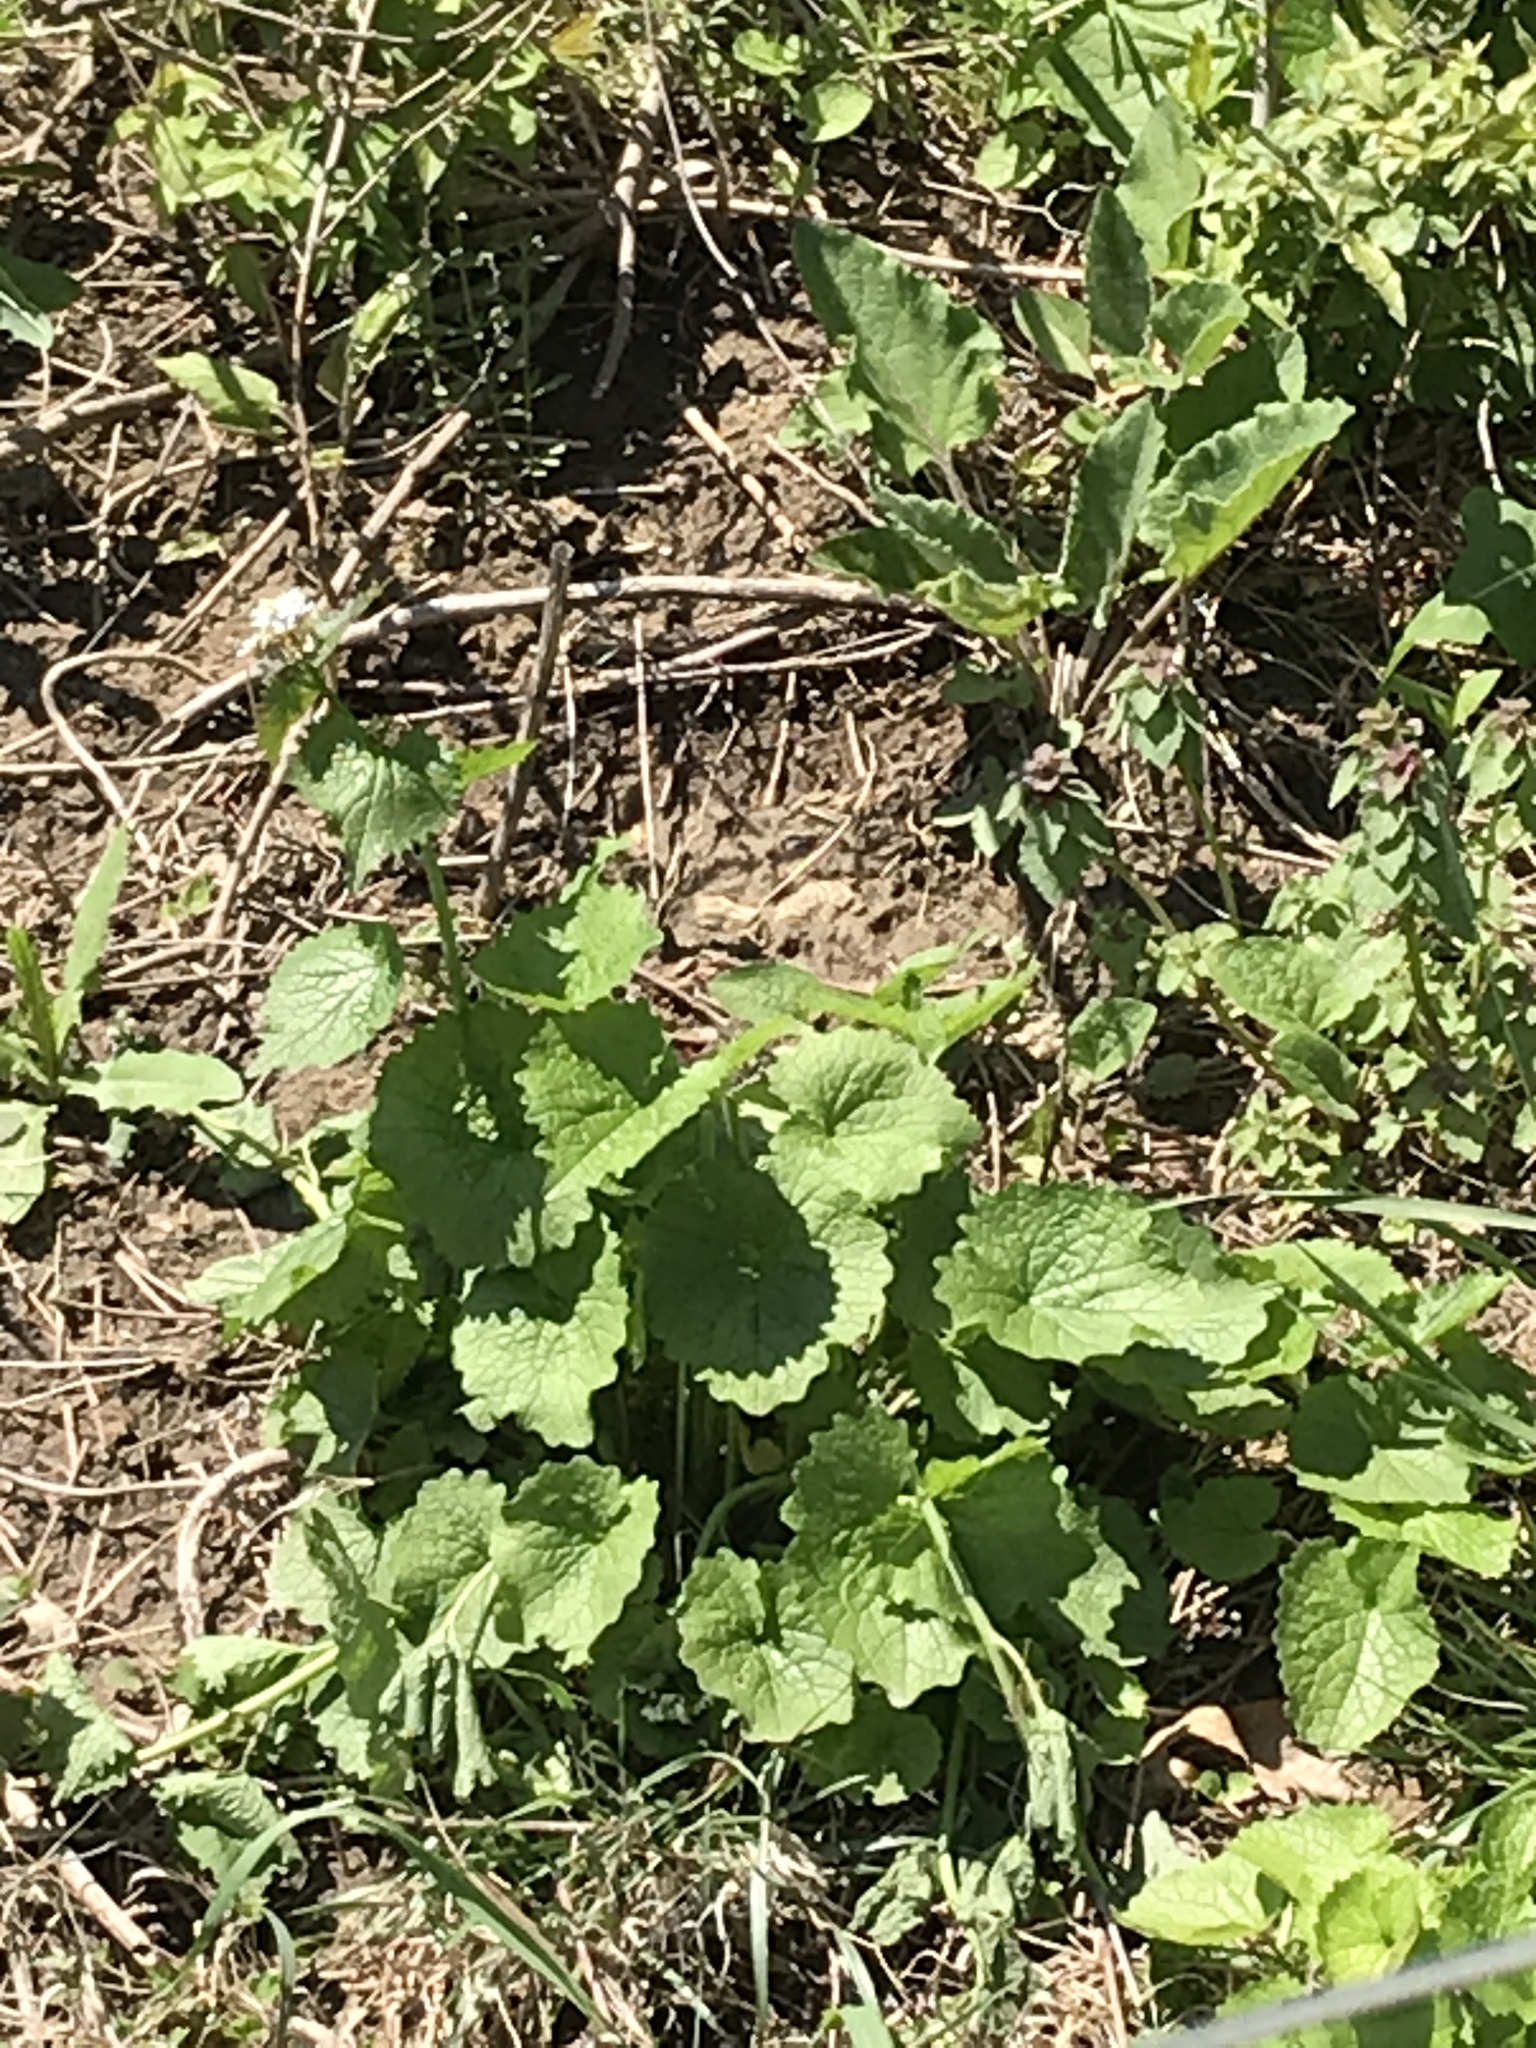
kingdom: Plantae
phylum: Tracheophyta
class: Magnoliopsida
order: Brassicales
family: Brassicaceae
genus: Alliaria
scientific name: Alliaria petiolata
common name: Garlic mustard
